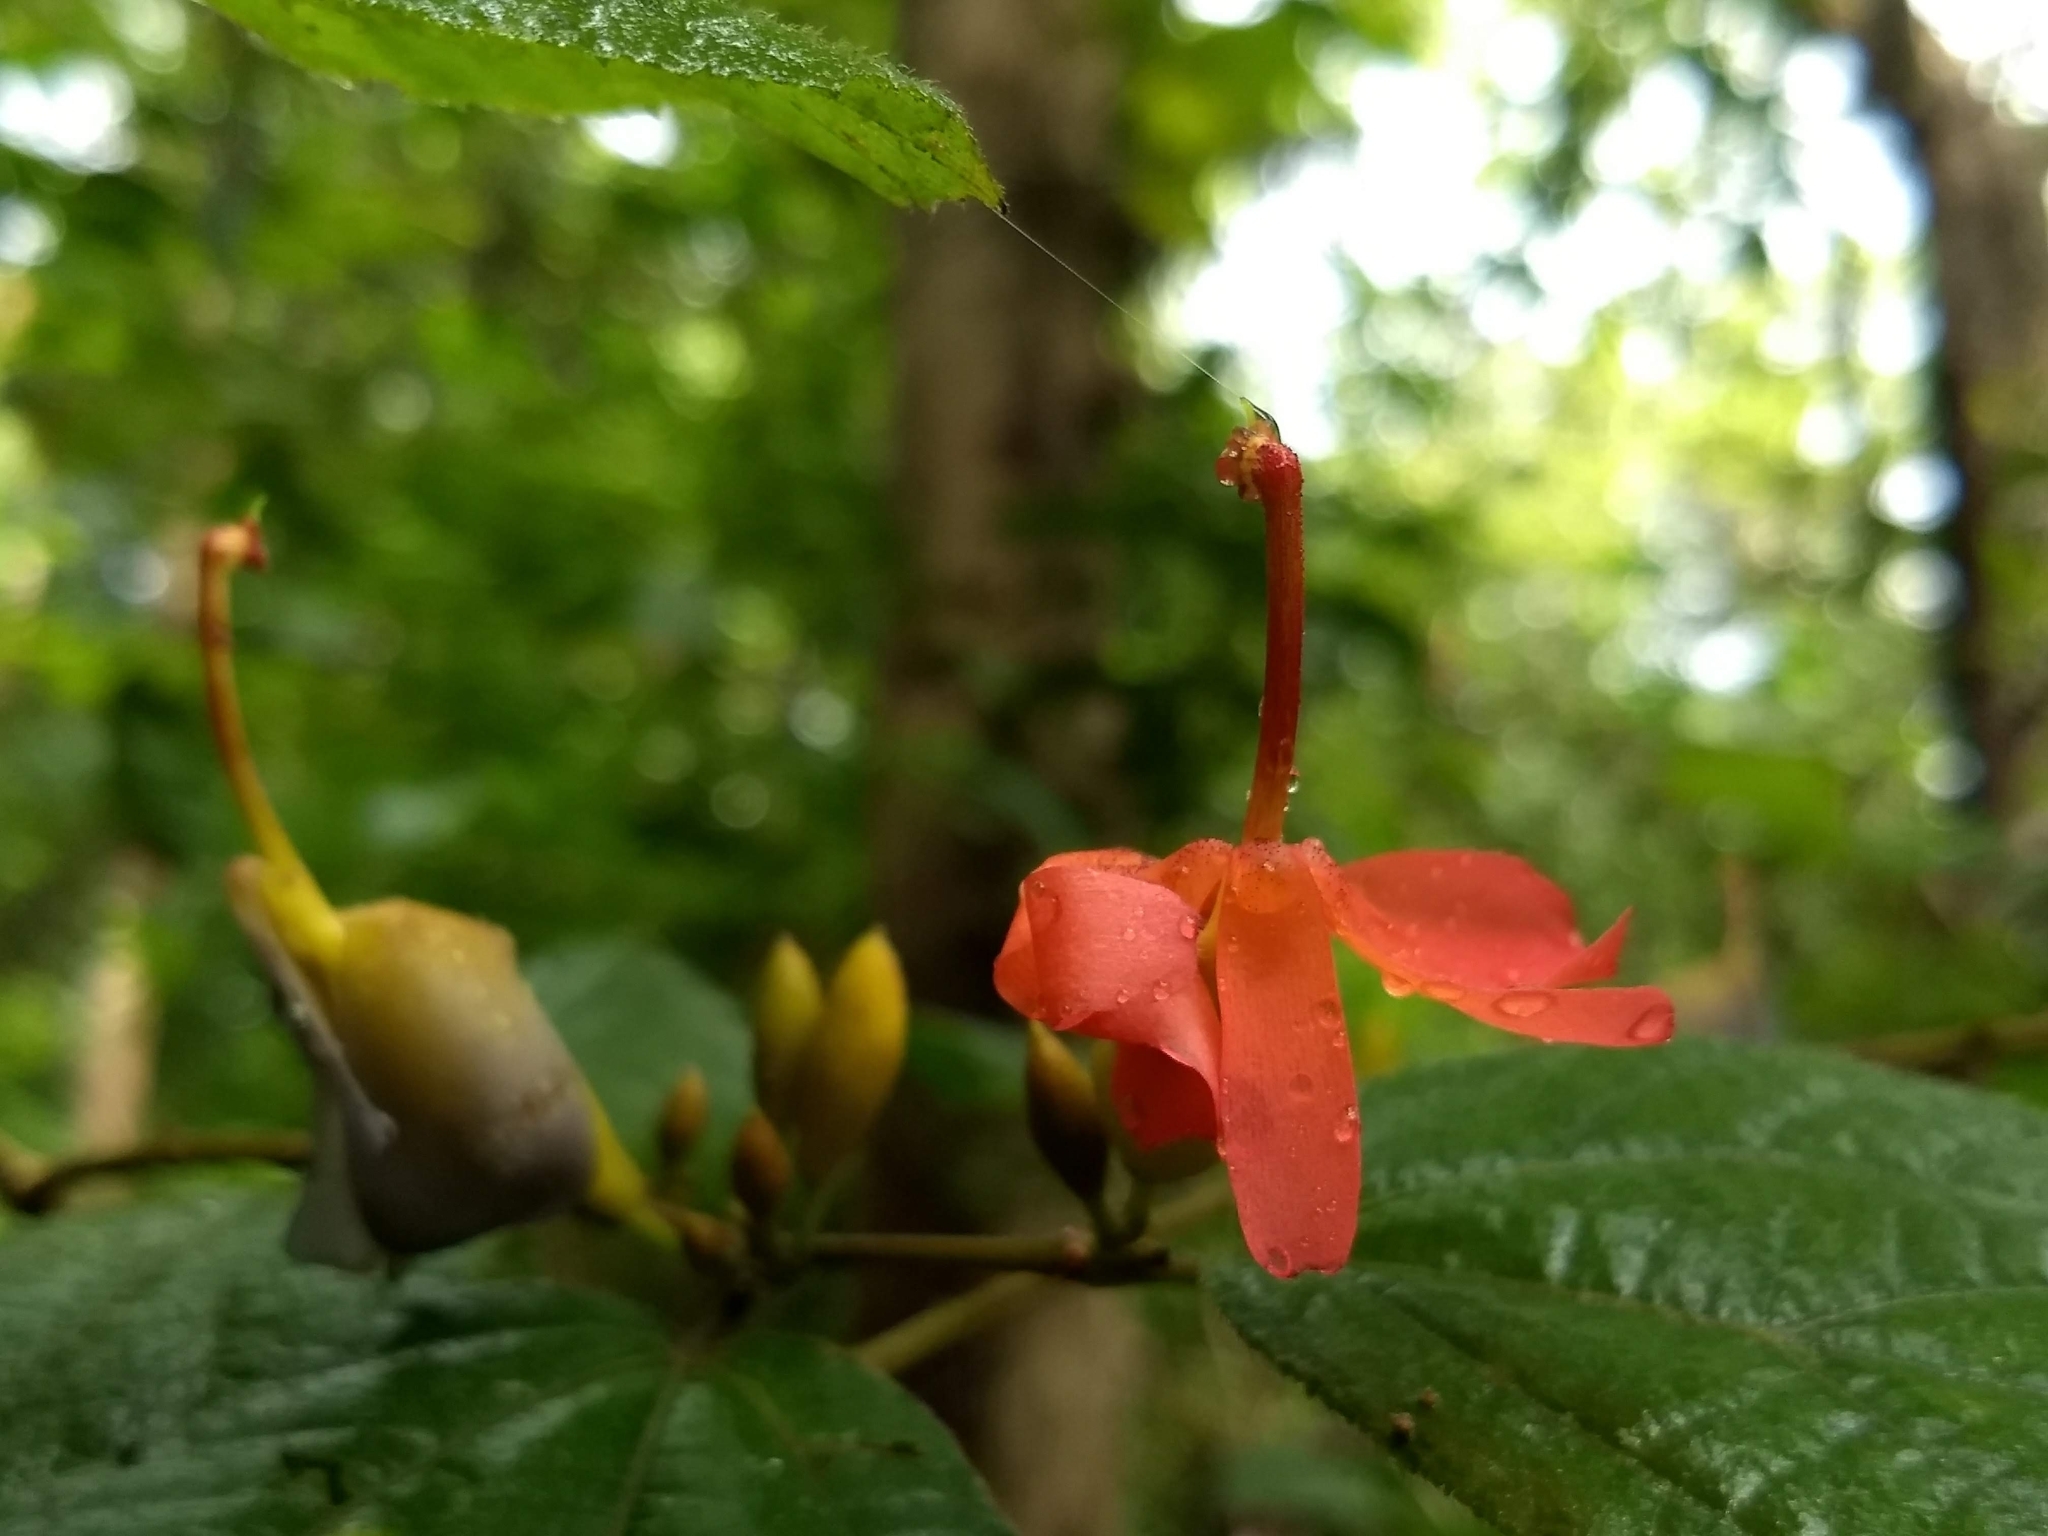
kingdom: Plantae
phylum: Tracheophyta
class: Magnoliopsida
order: Malvales
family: Malvaceae
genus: Helicteres
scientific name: Helicteres isora
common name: East indian screwtree
